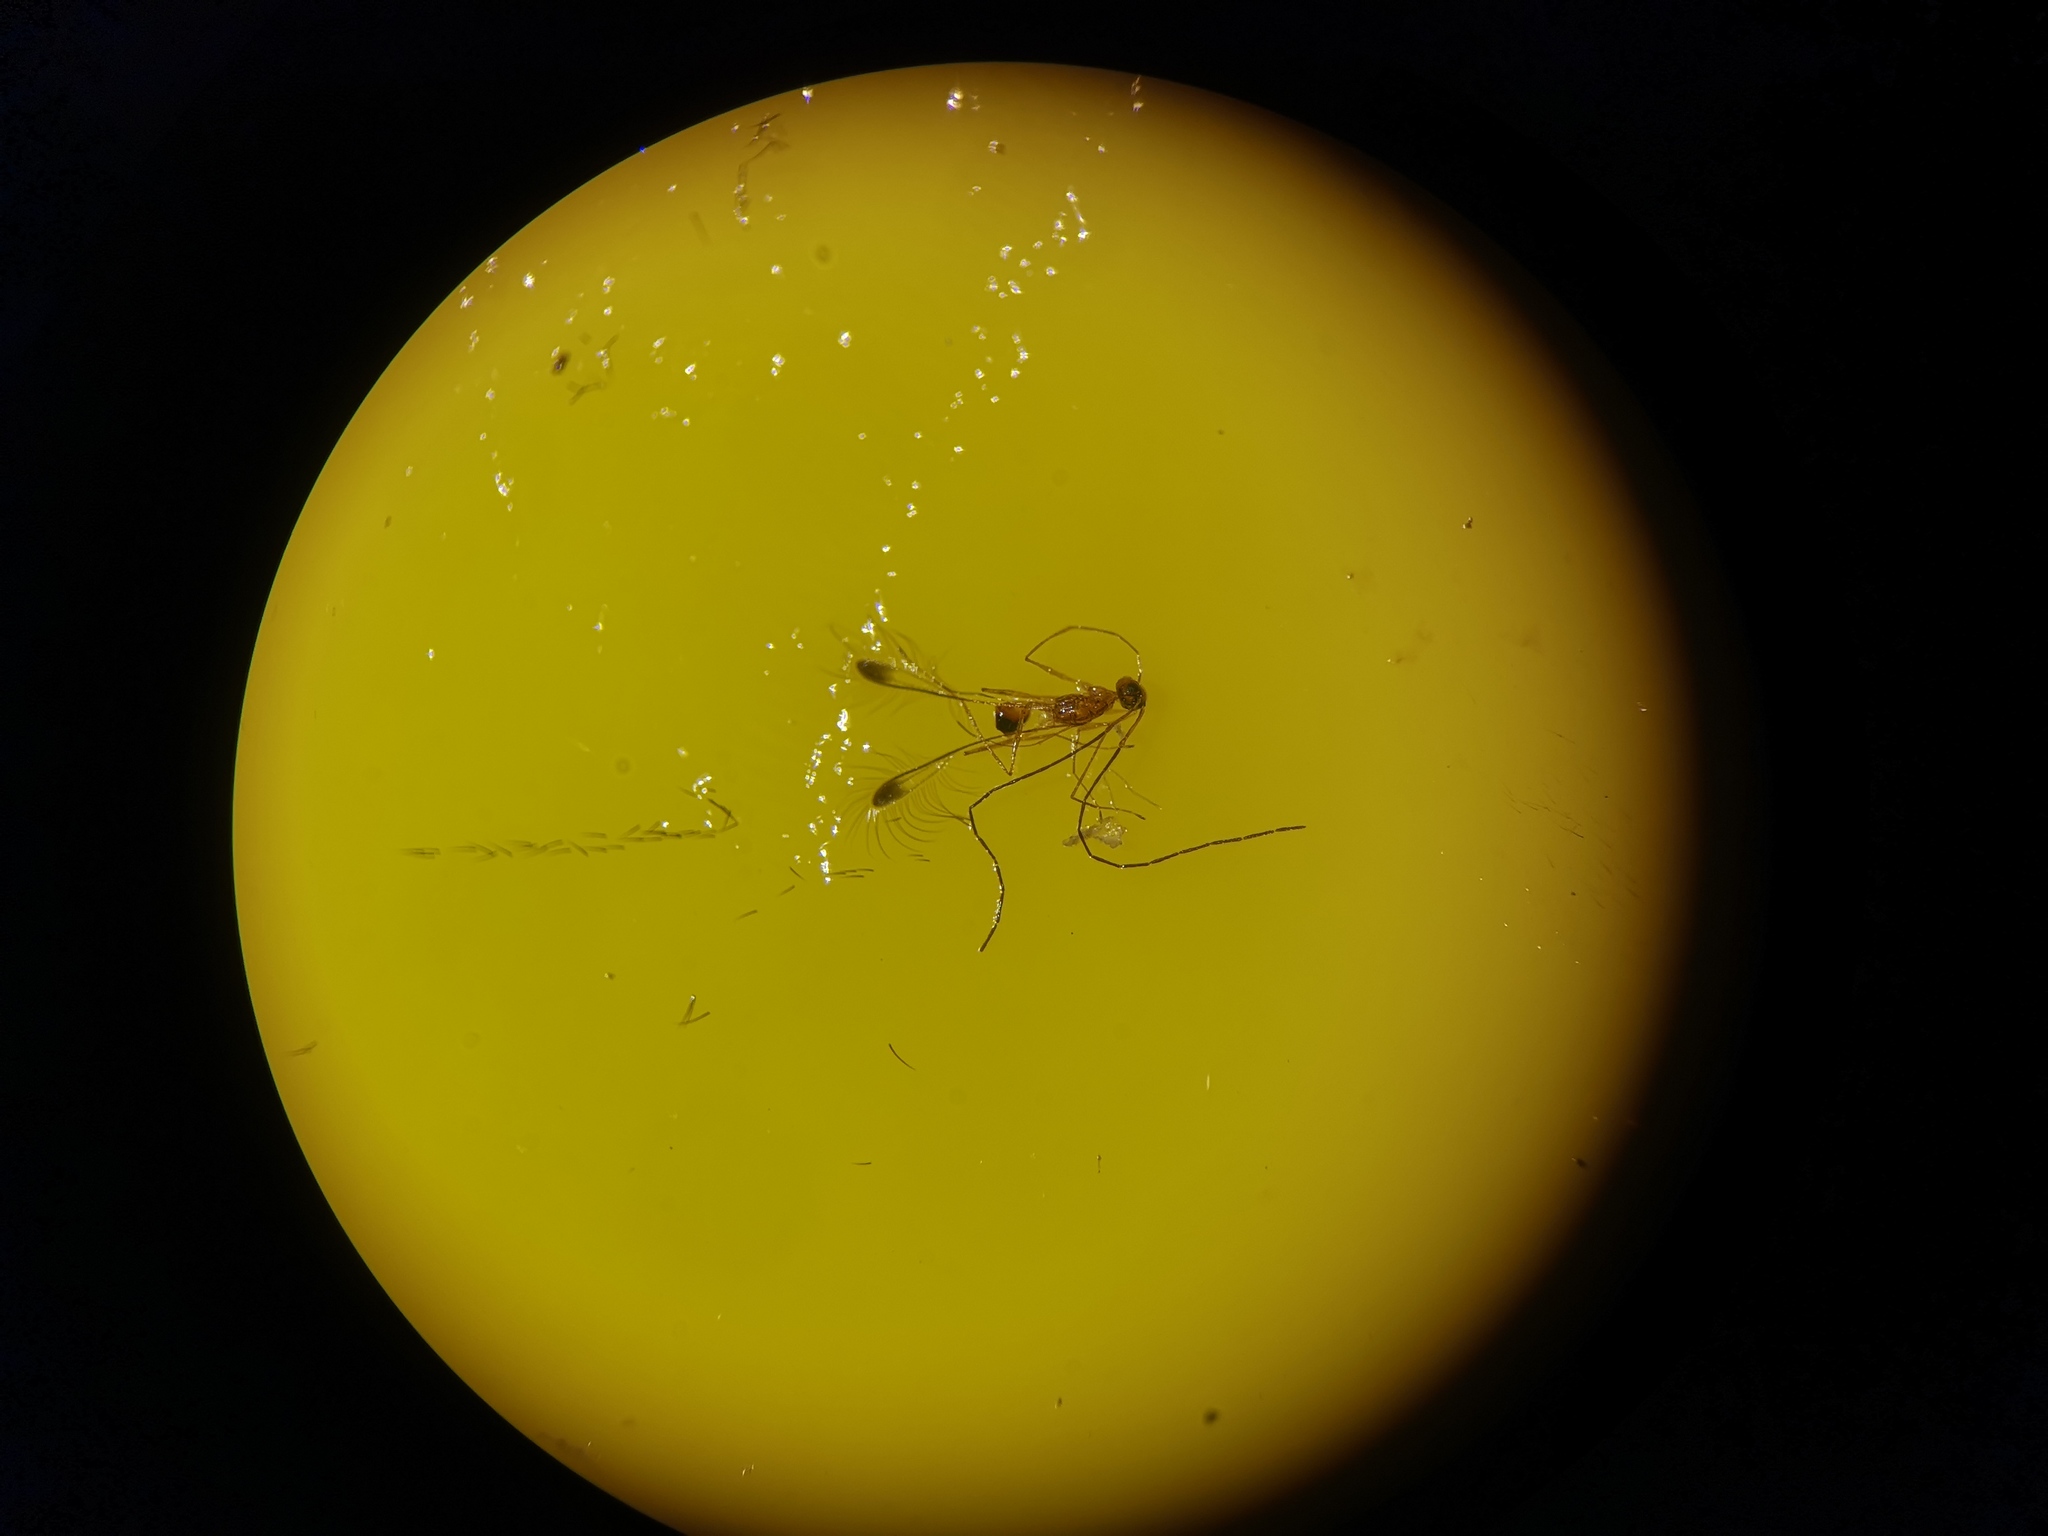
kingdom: Animalia
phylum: Arthropoda
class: Insecta
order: Hymenoptera
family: Mymaridae
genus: Mymar
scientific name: Mymar
